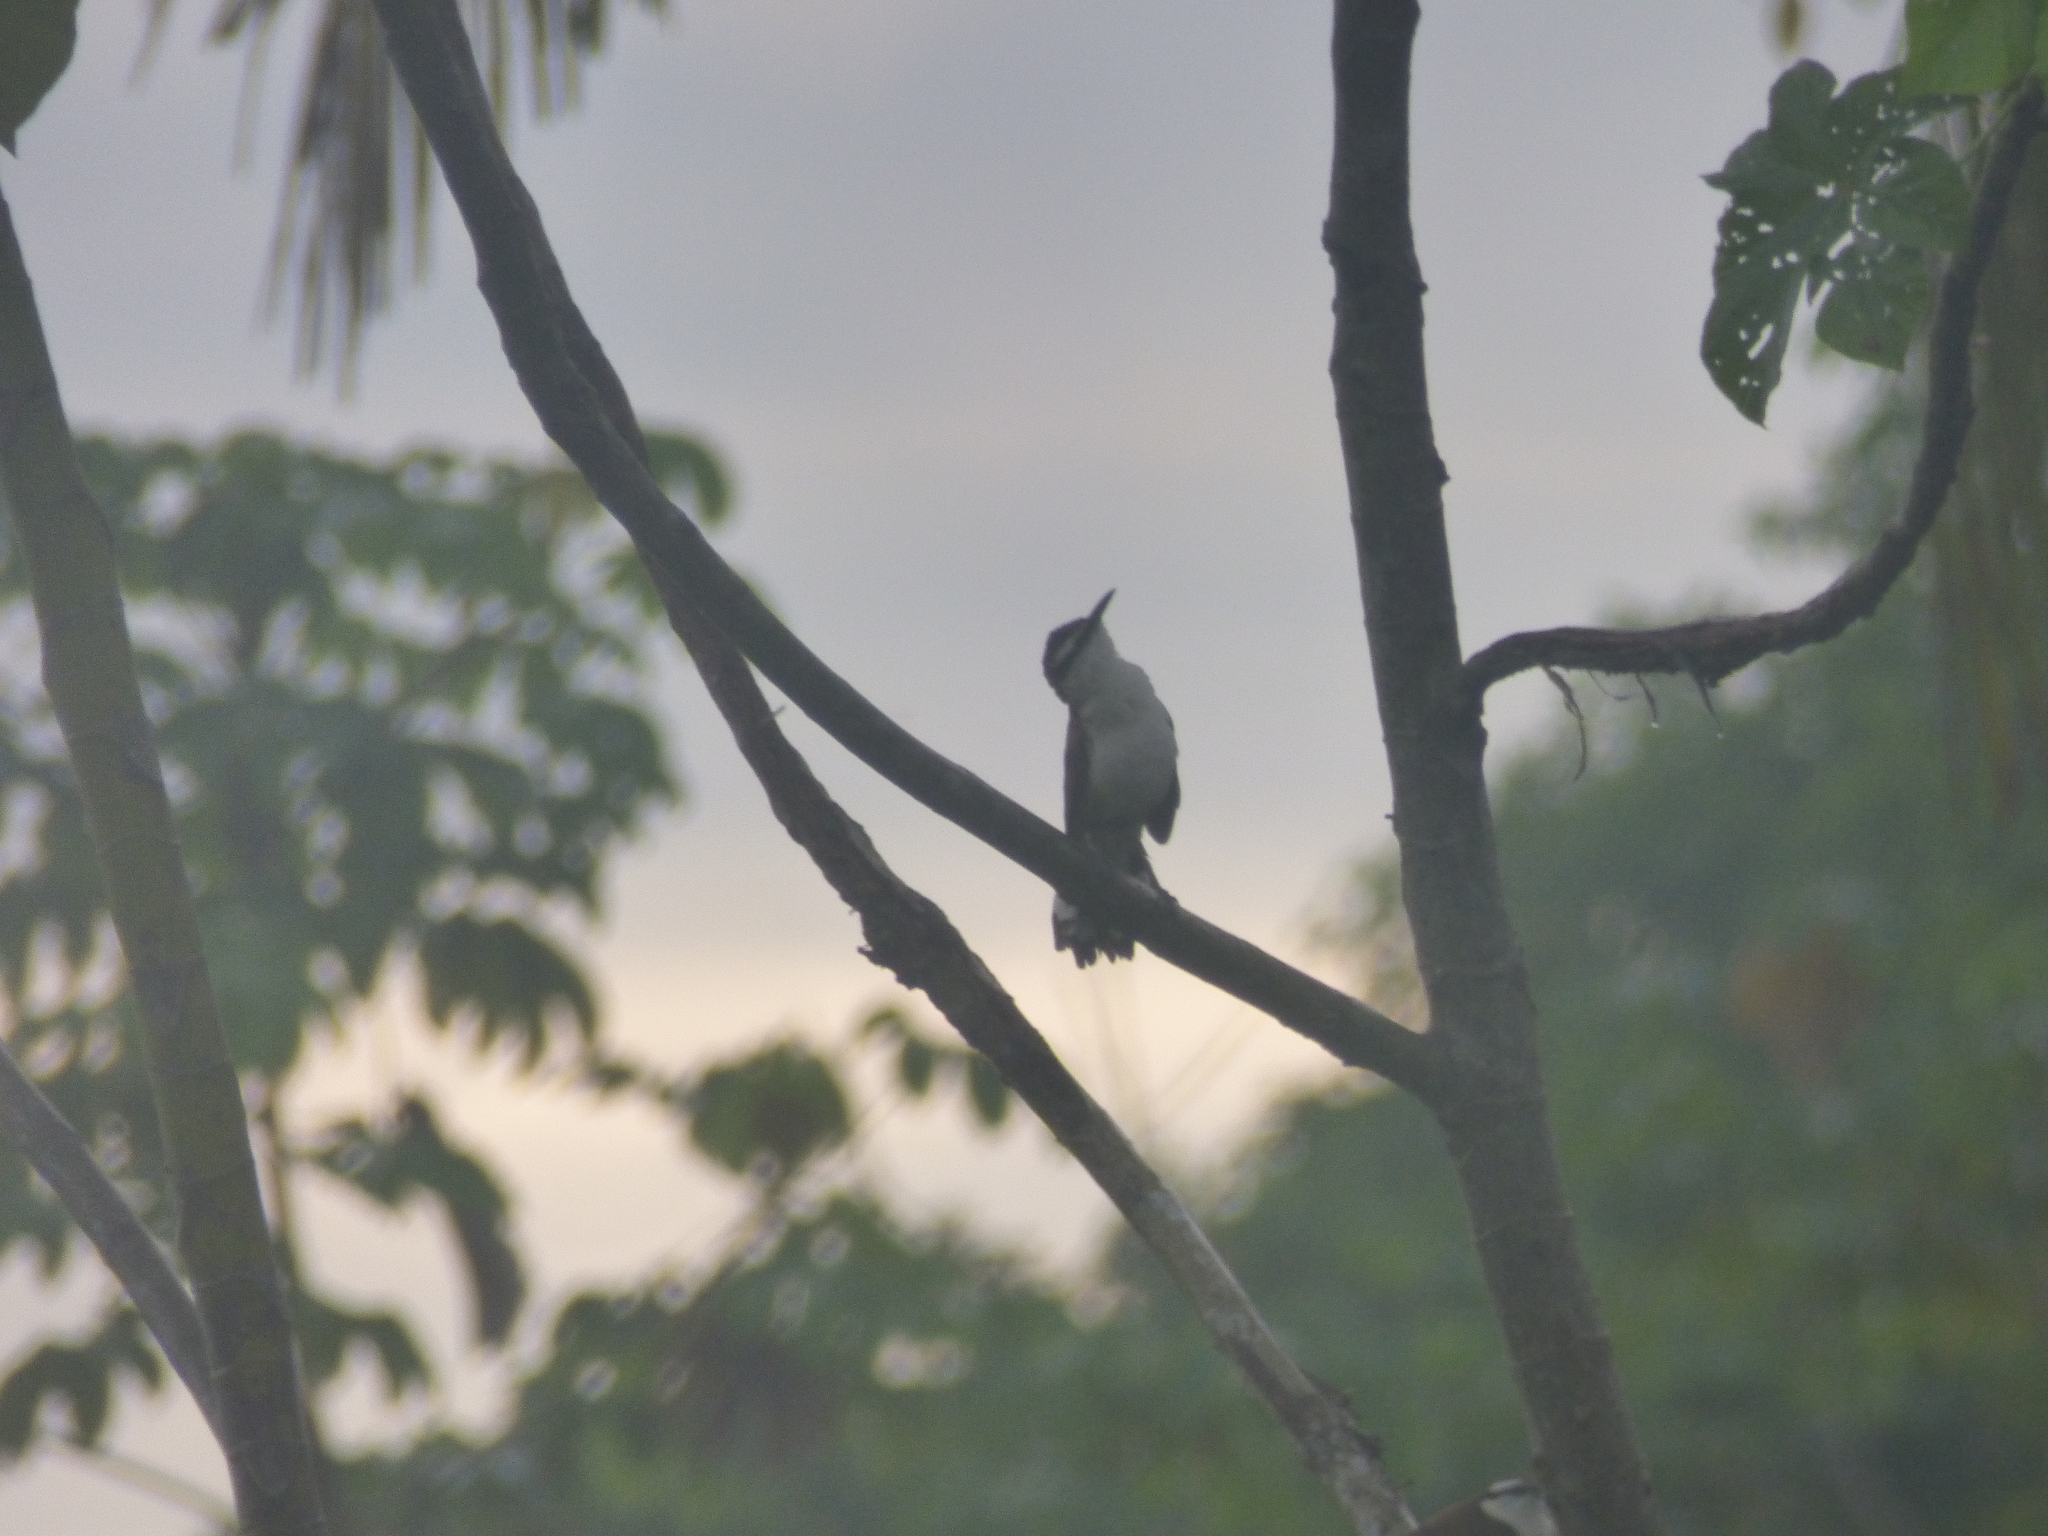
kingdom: Animalia
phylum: Chordata
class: Aves
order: Passeriformes
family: Troglodytidae
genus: Campylorhynchus
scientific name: Campylorhynchus griseus
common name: Bicolored wren
